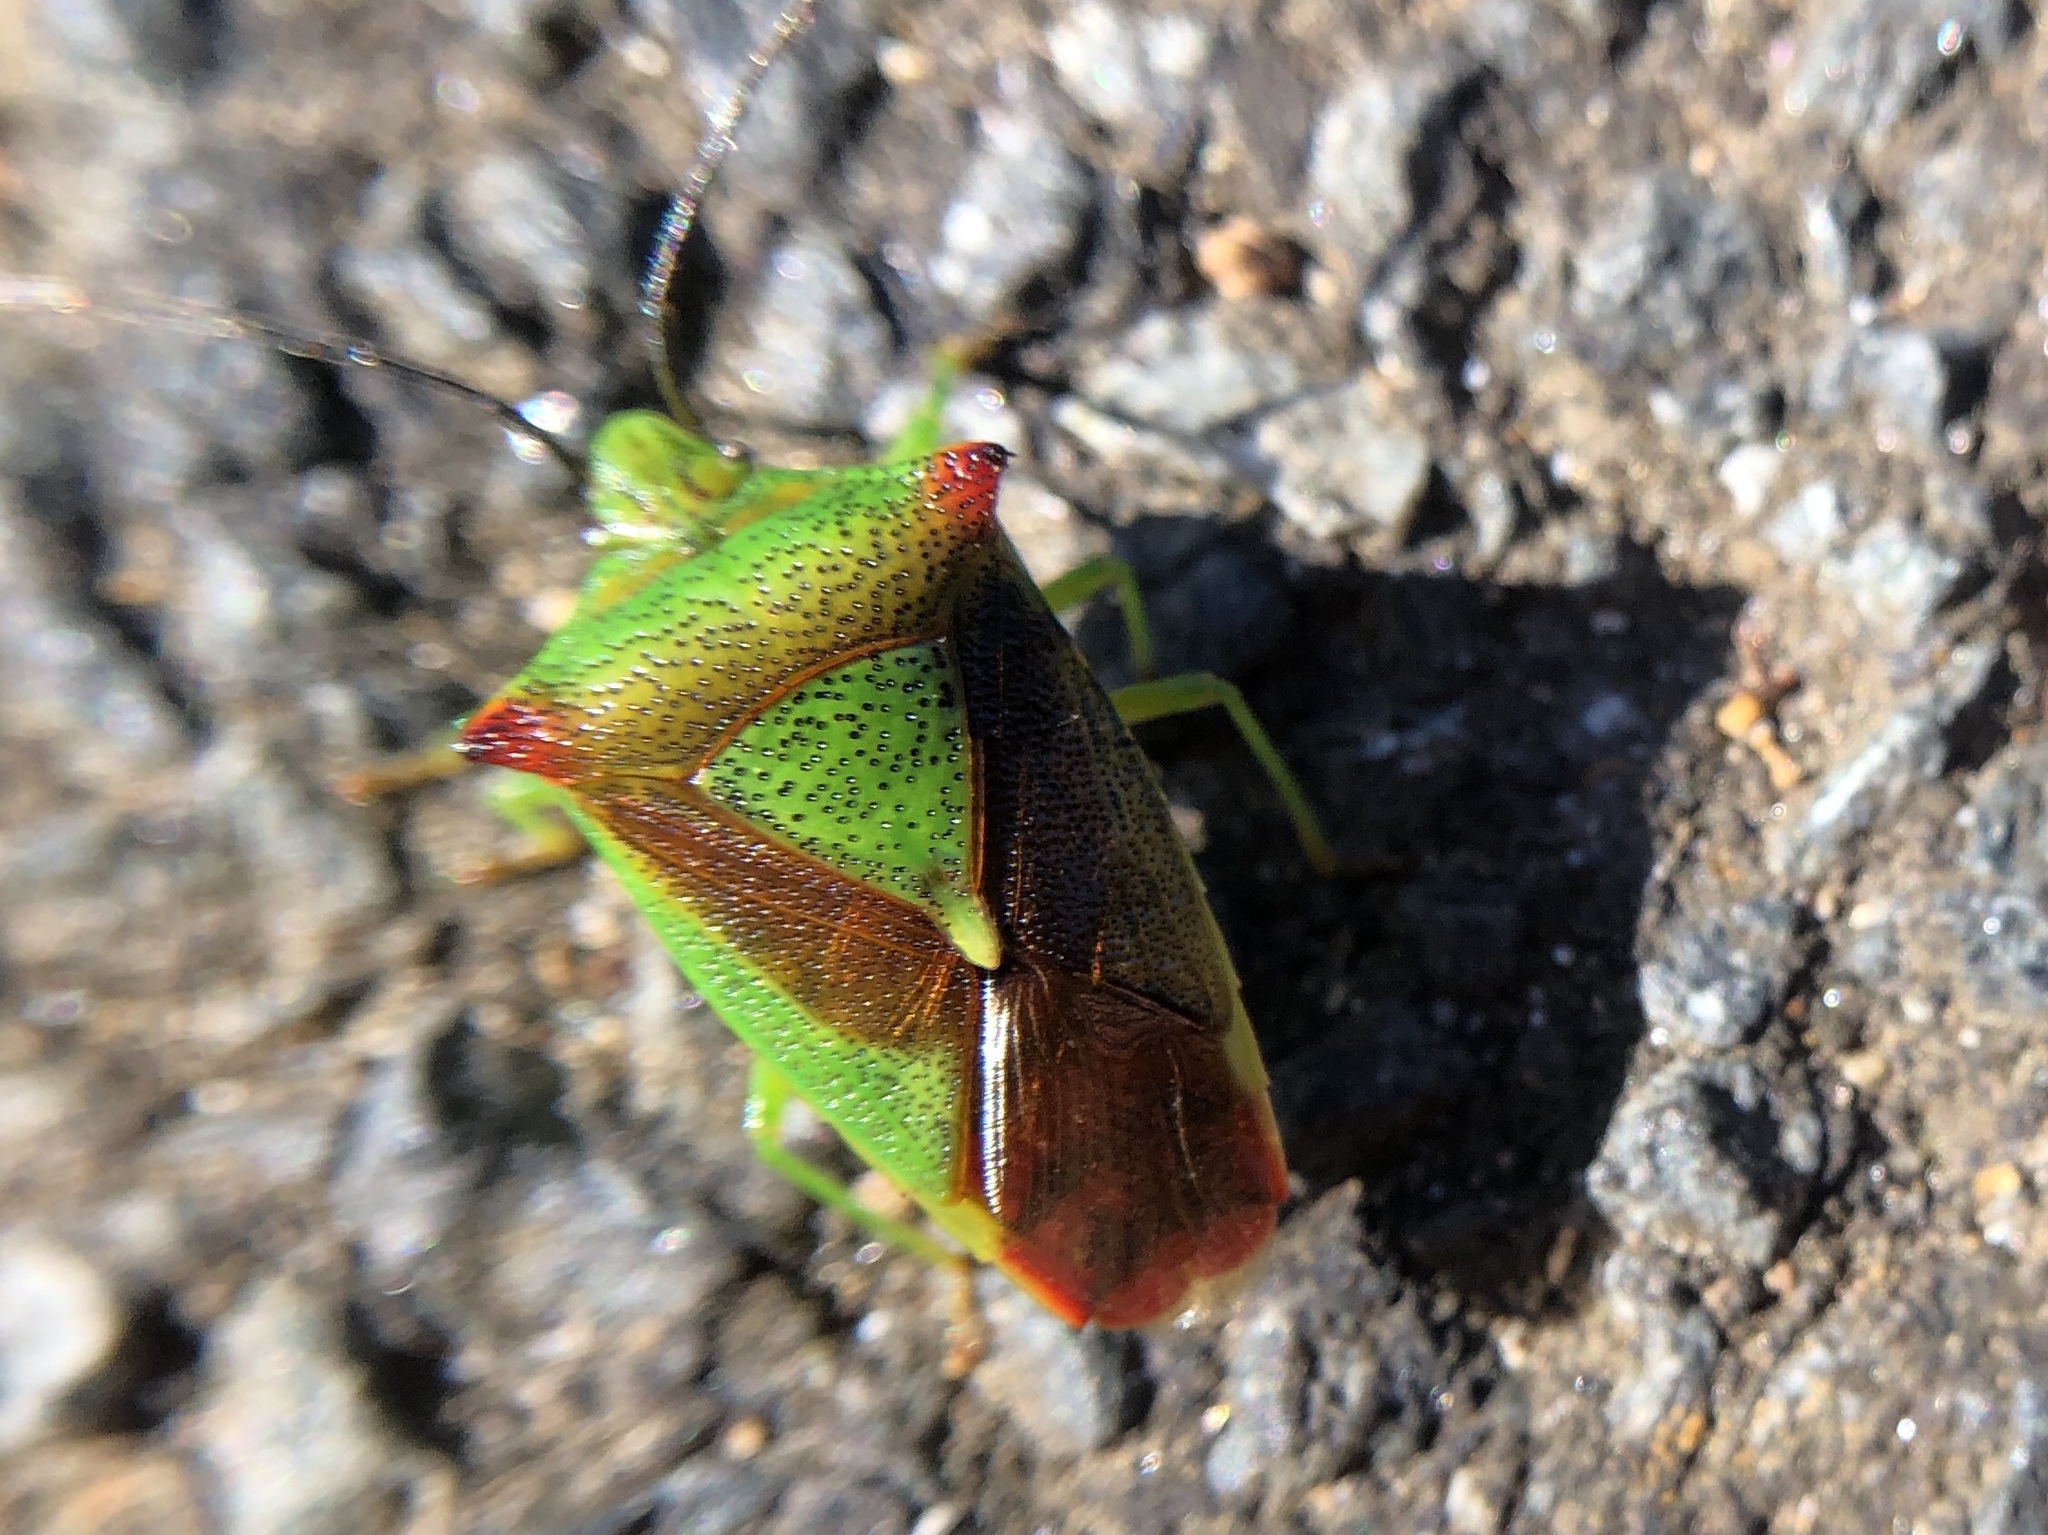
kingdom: Animalia
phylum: Arthropoda
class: Insecta
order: Hemiptera
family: Acanthosomatidae
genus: Acanthosoma
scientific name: Acanthosoma haemorrhoidale
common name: Hawthorn shieldbug
